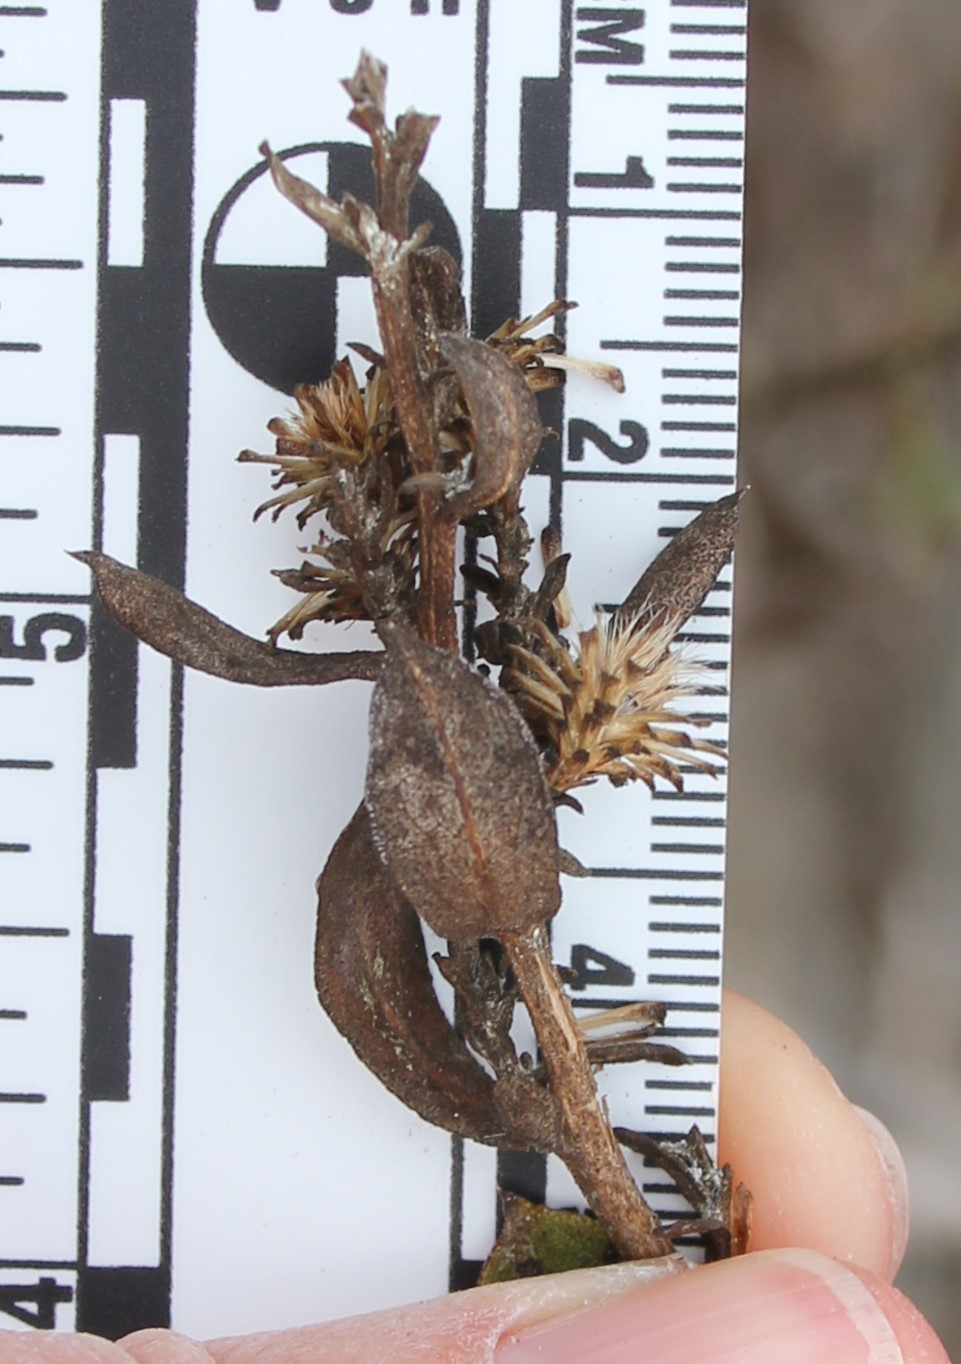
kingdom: Plantae
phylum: Tracheophyta
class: Magnoliopsida
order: Asterales
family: Asteraceae
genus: Hazardia
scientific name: Hazardia orcuttii
